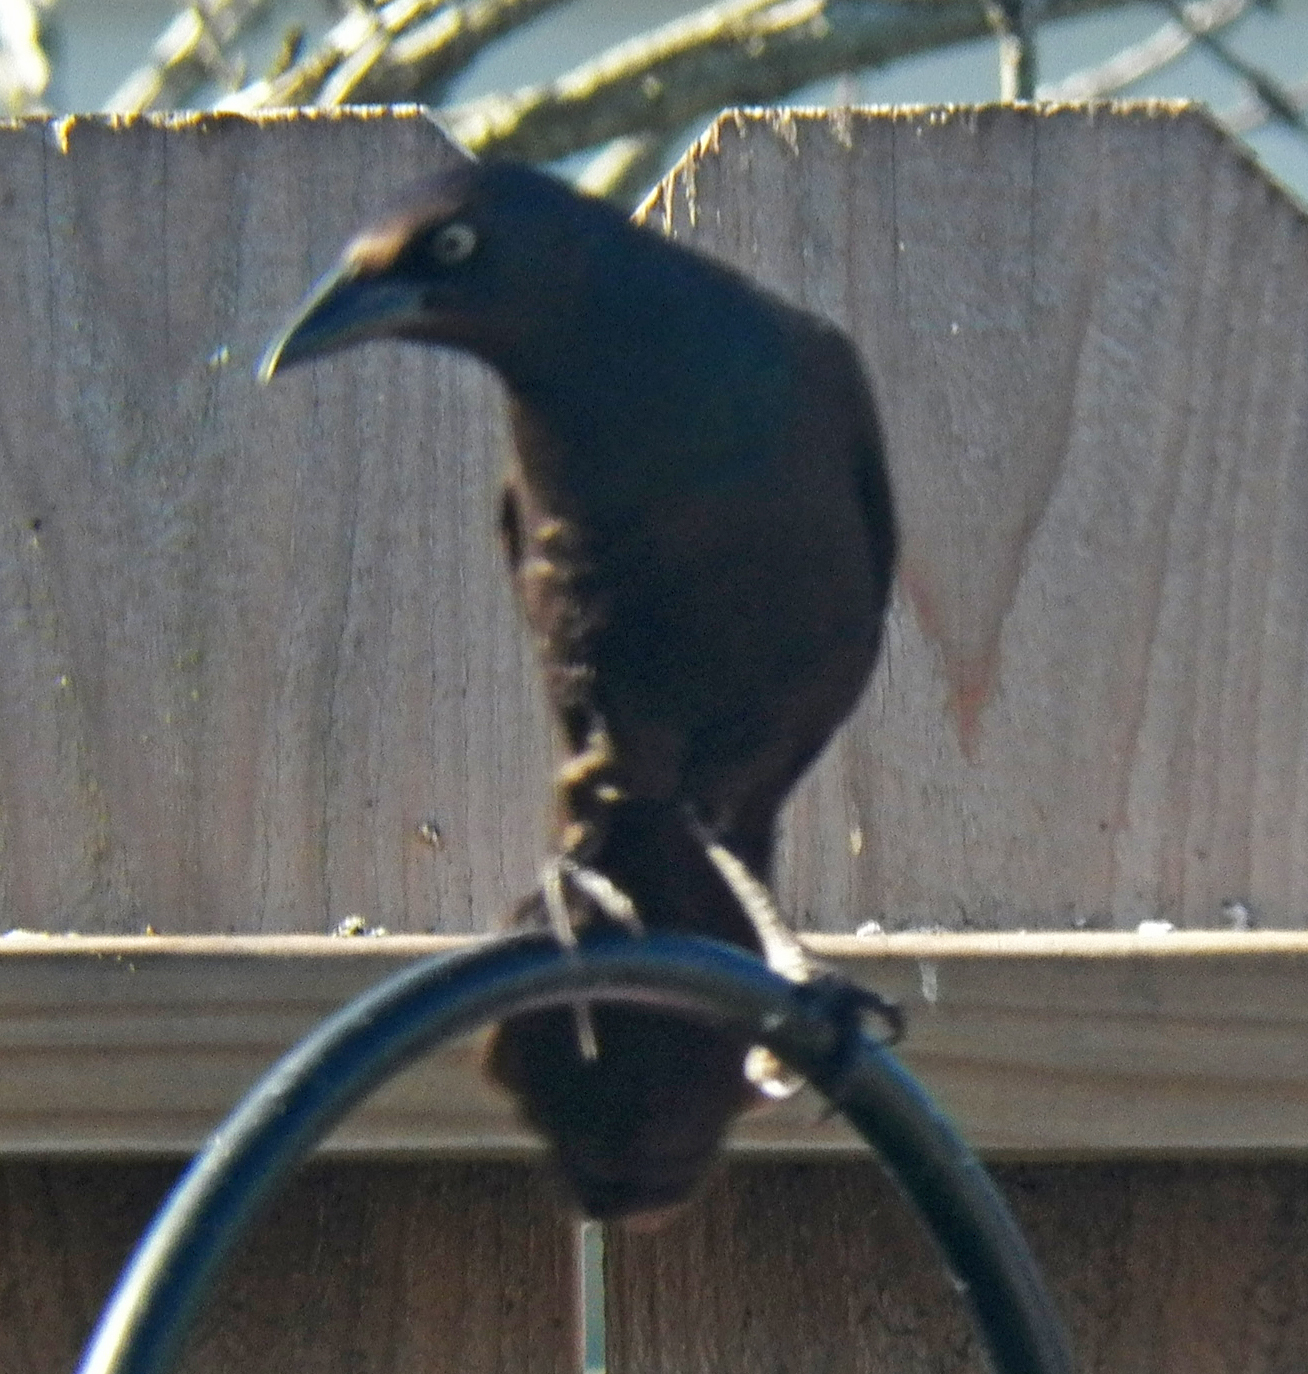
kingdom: Animalia
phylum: Chordata
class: Aves
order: Passeriformes
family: Icteridae
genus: Quiscalus
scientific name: Quiscalus quiscula
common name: Common grackle
